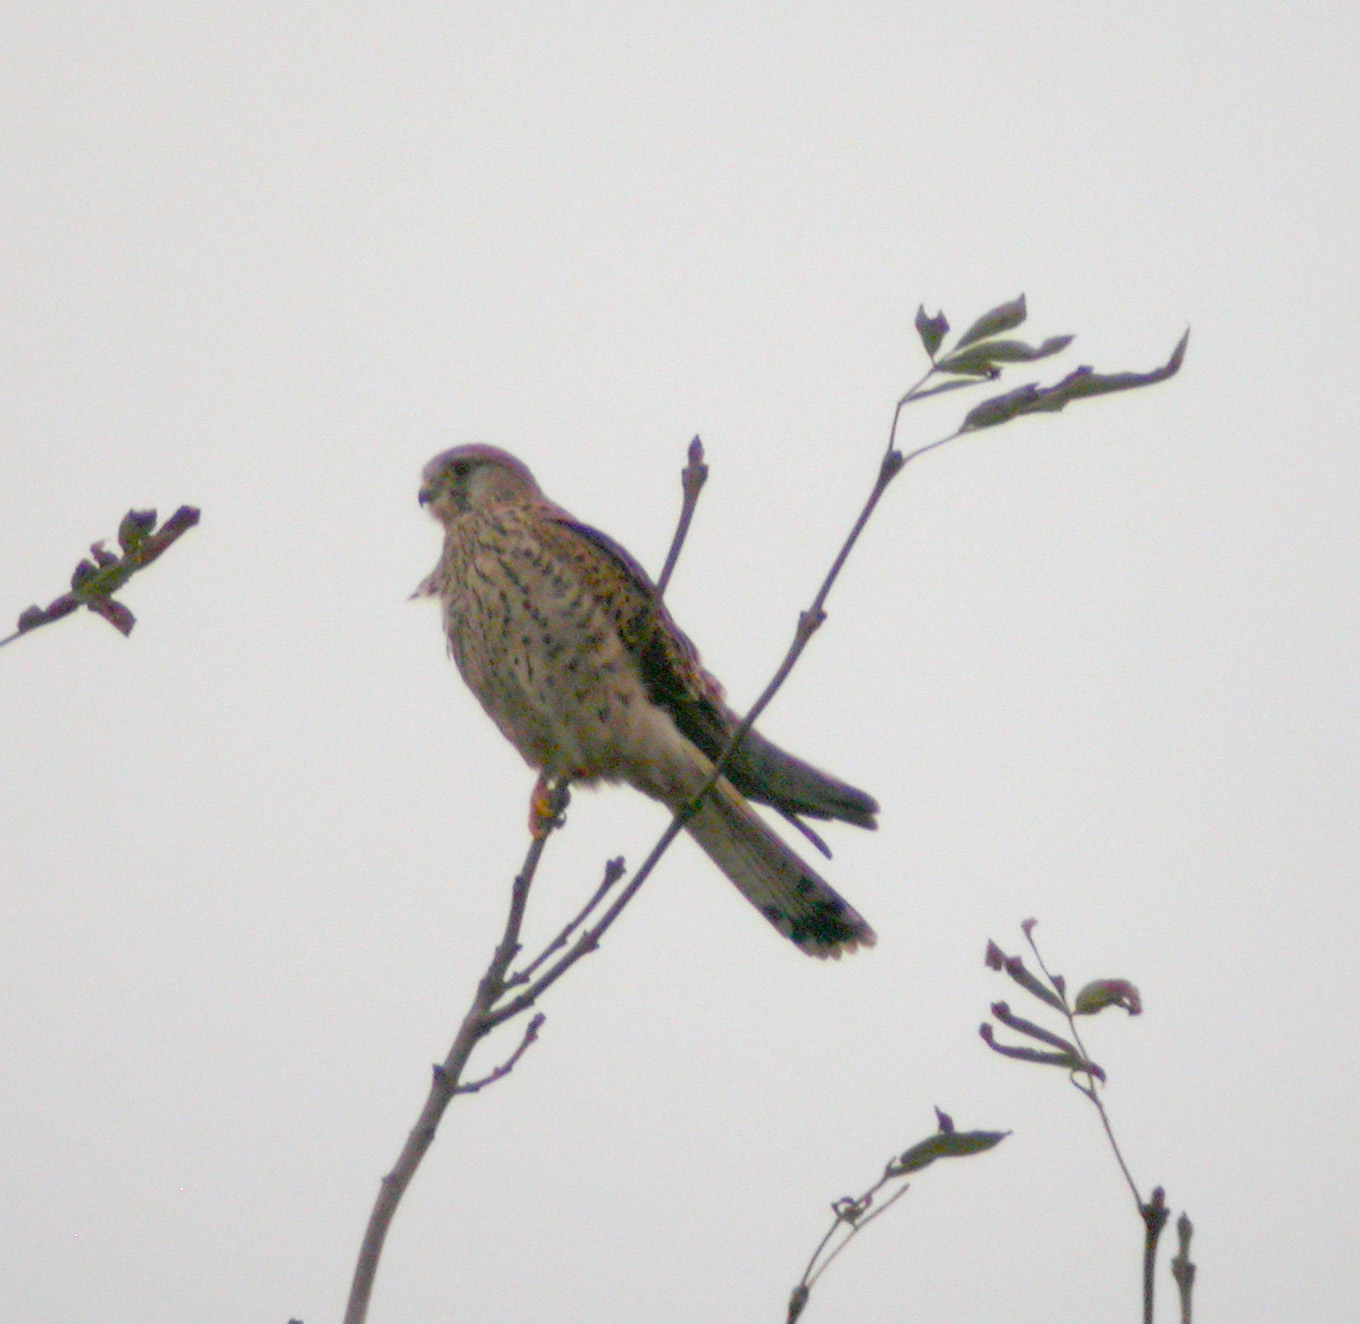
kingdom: Animalia
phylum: Chordata
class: Aves
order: Falconiformes
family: Falconidae
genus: Falco
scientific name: Falco tinnunculus
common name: Common kestrel
